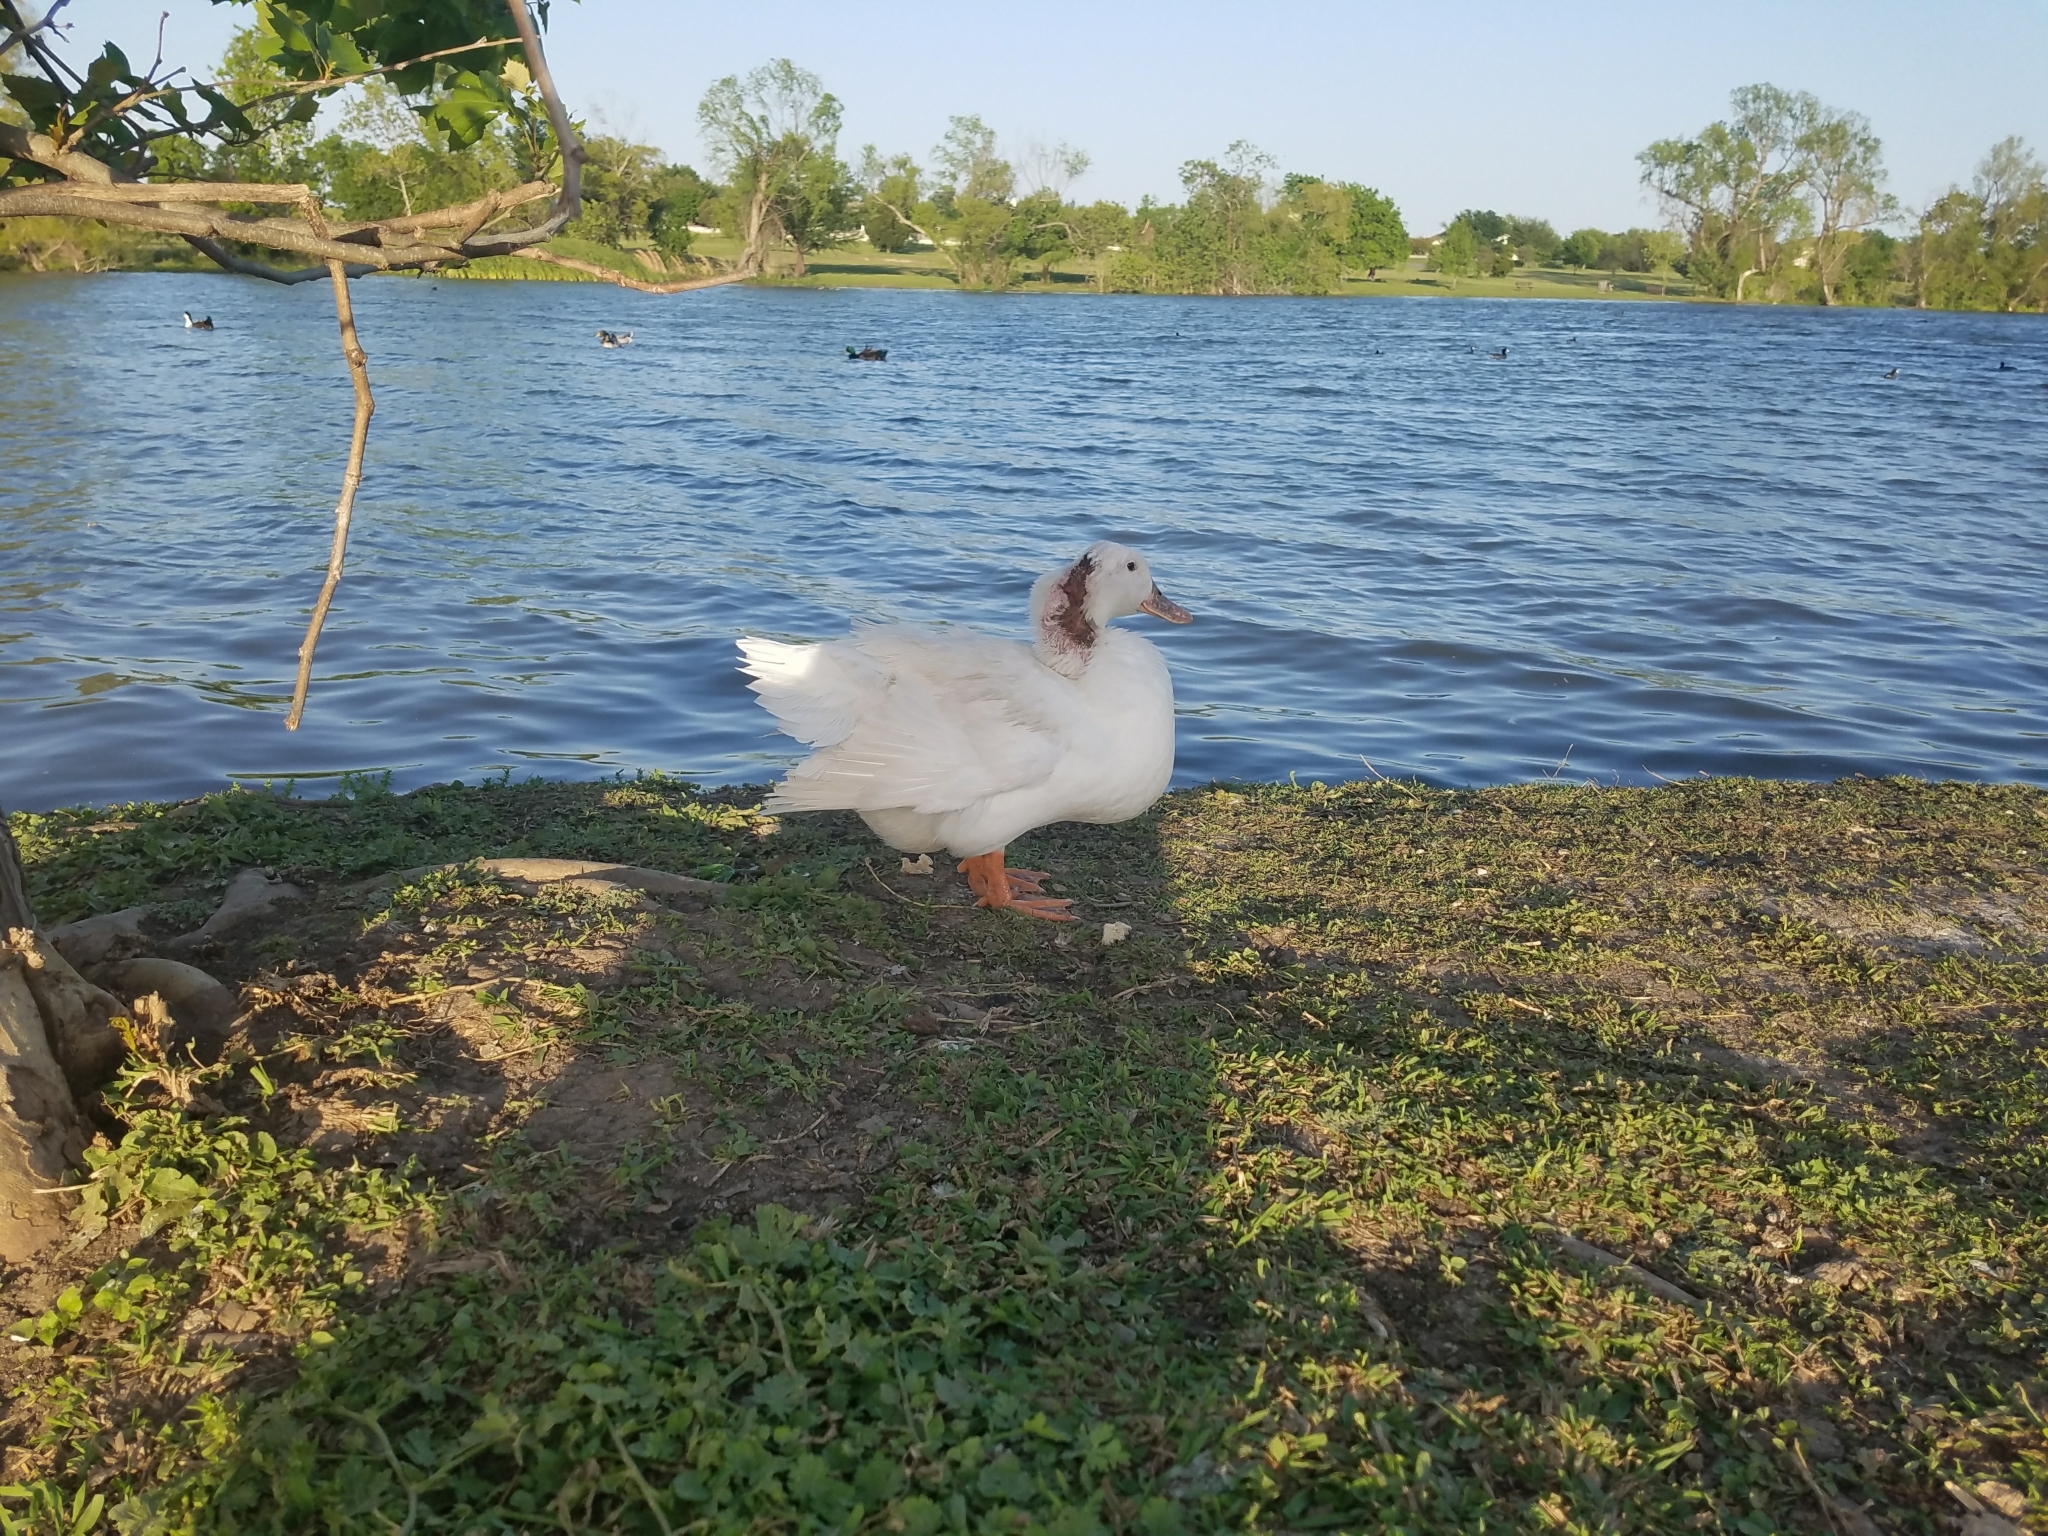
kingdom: Animalia
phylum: Chordata
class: Aves
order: Anseriformes
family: Anatidae
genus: Anas
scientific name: Anas platyrhynchos
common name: Mallard
